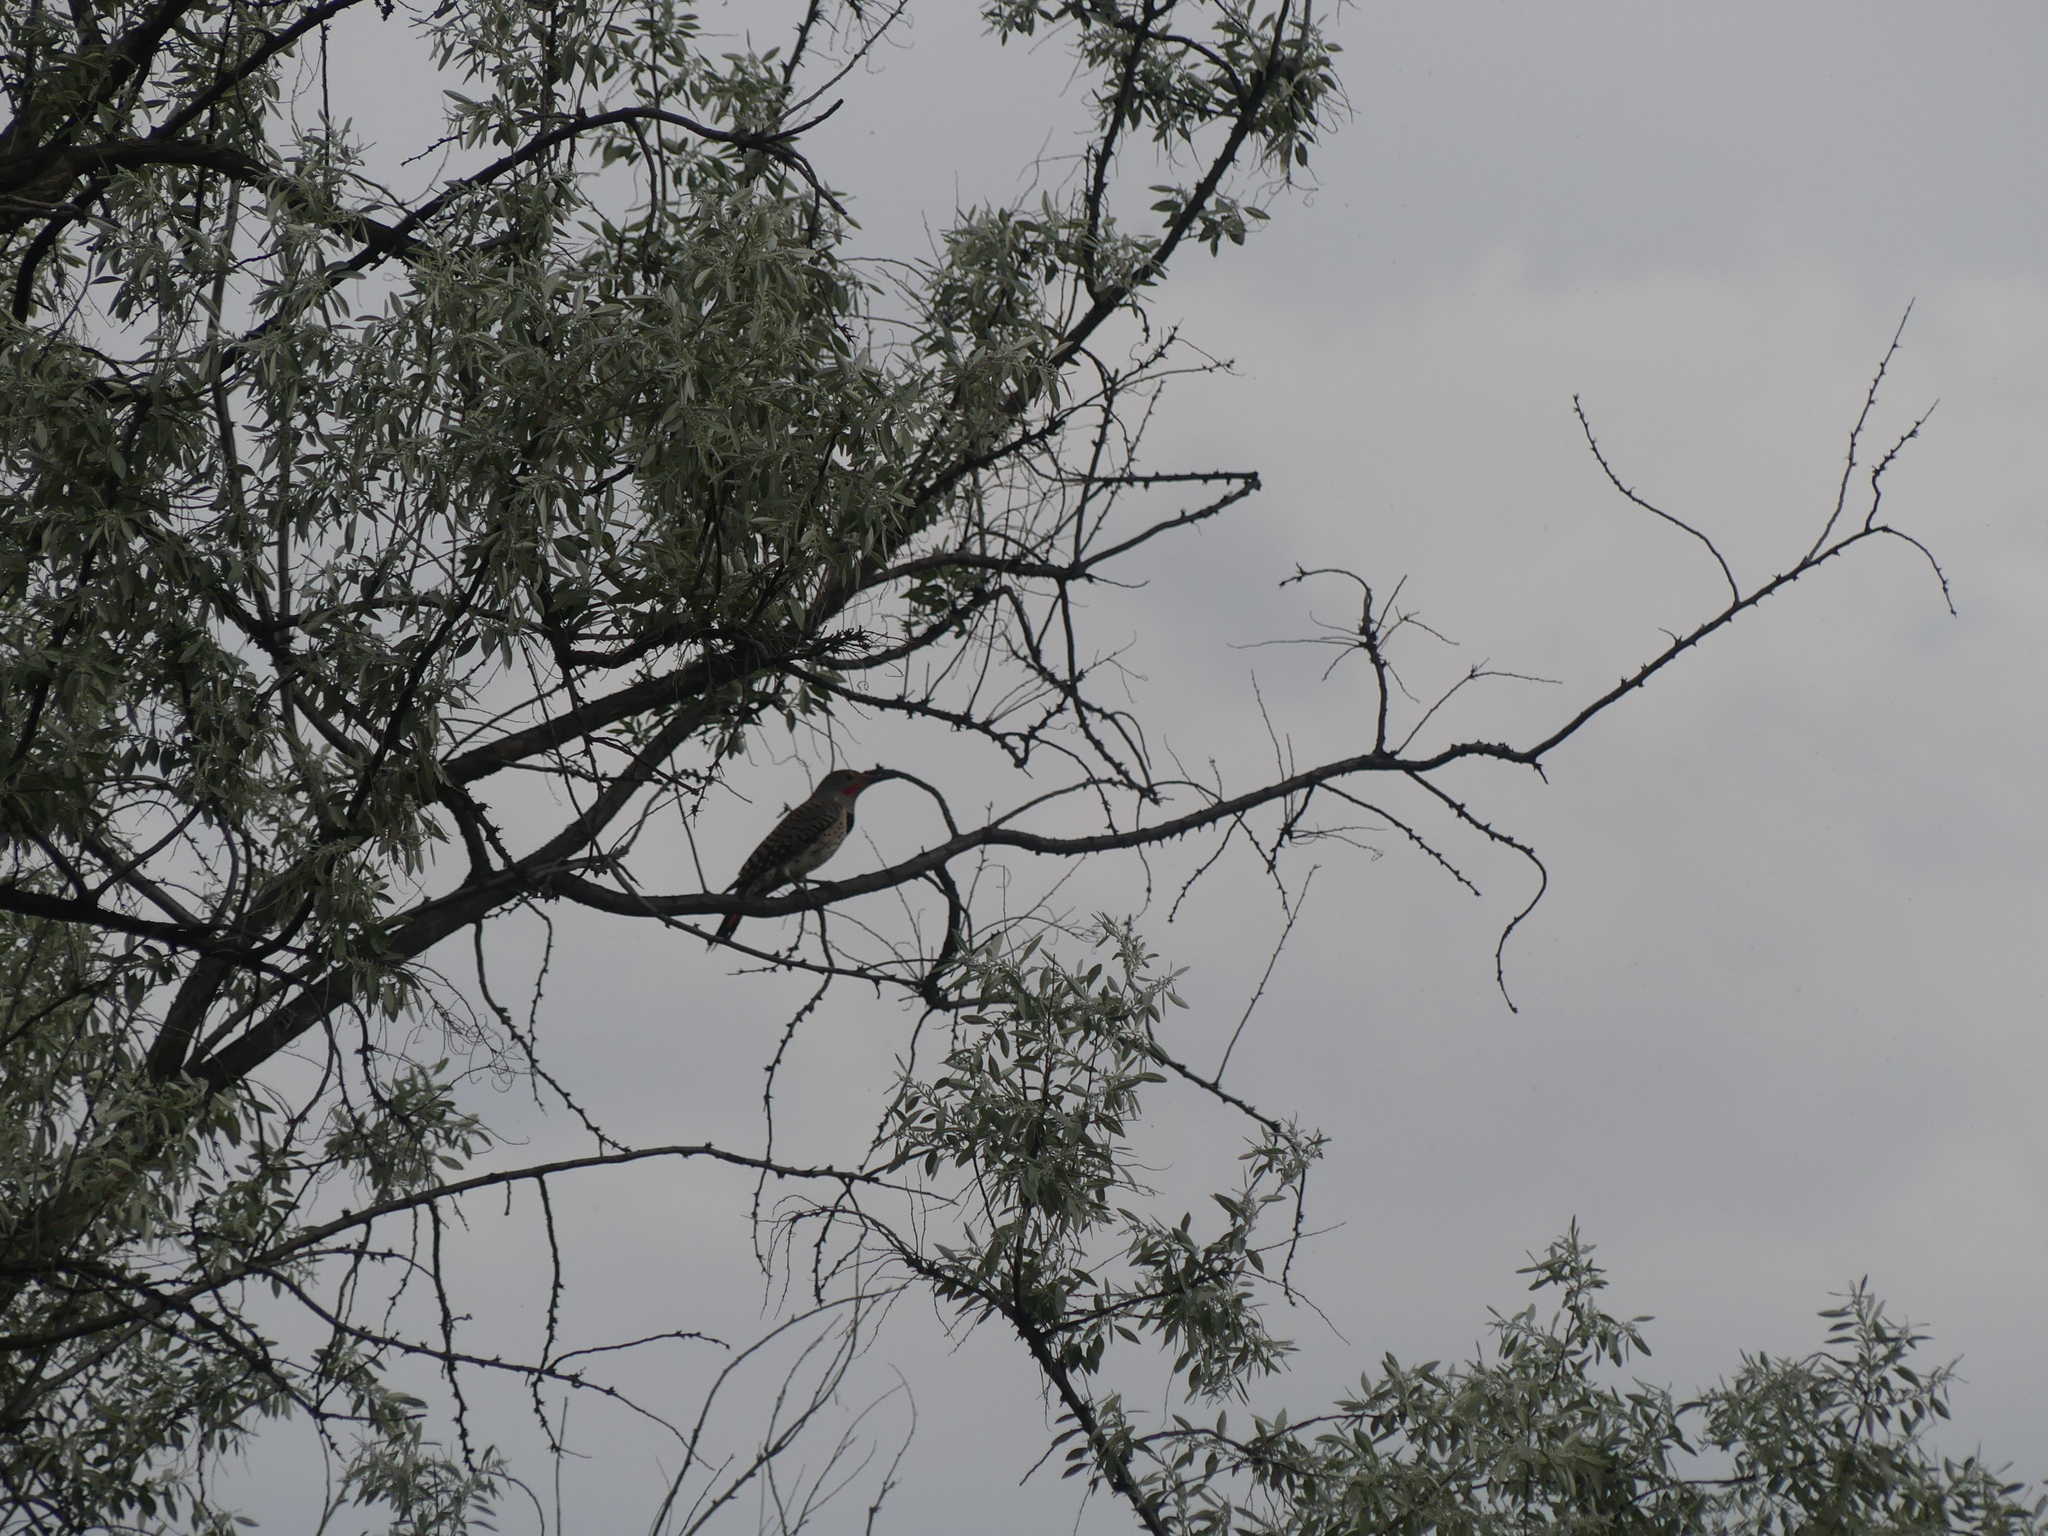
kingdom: Animalia
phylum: Chordata
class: Aves
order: Piciformes
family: Picidae
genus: Colaptes
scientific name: Colaptes auratus
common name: Northern flicker
